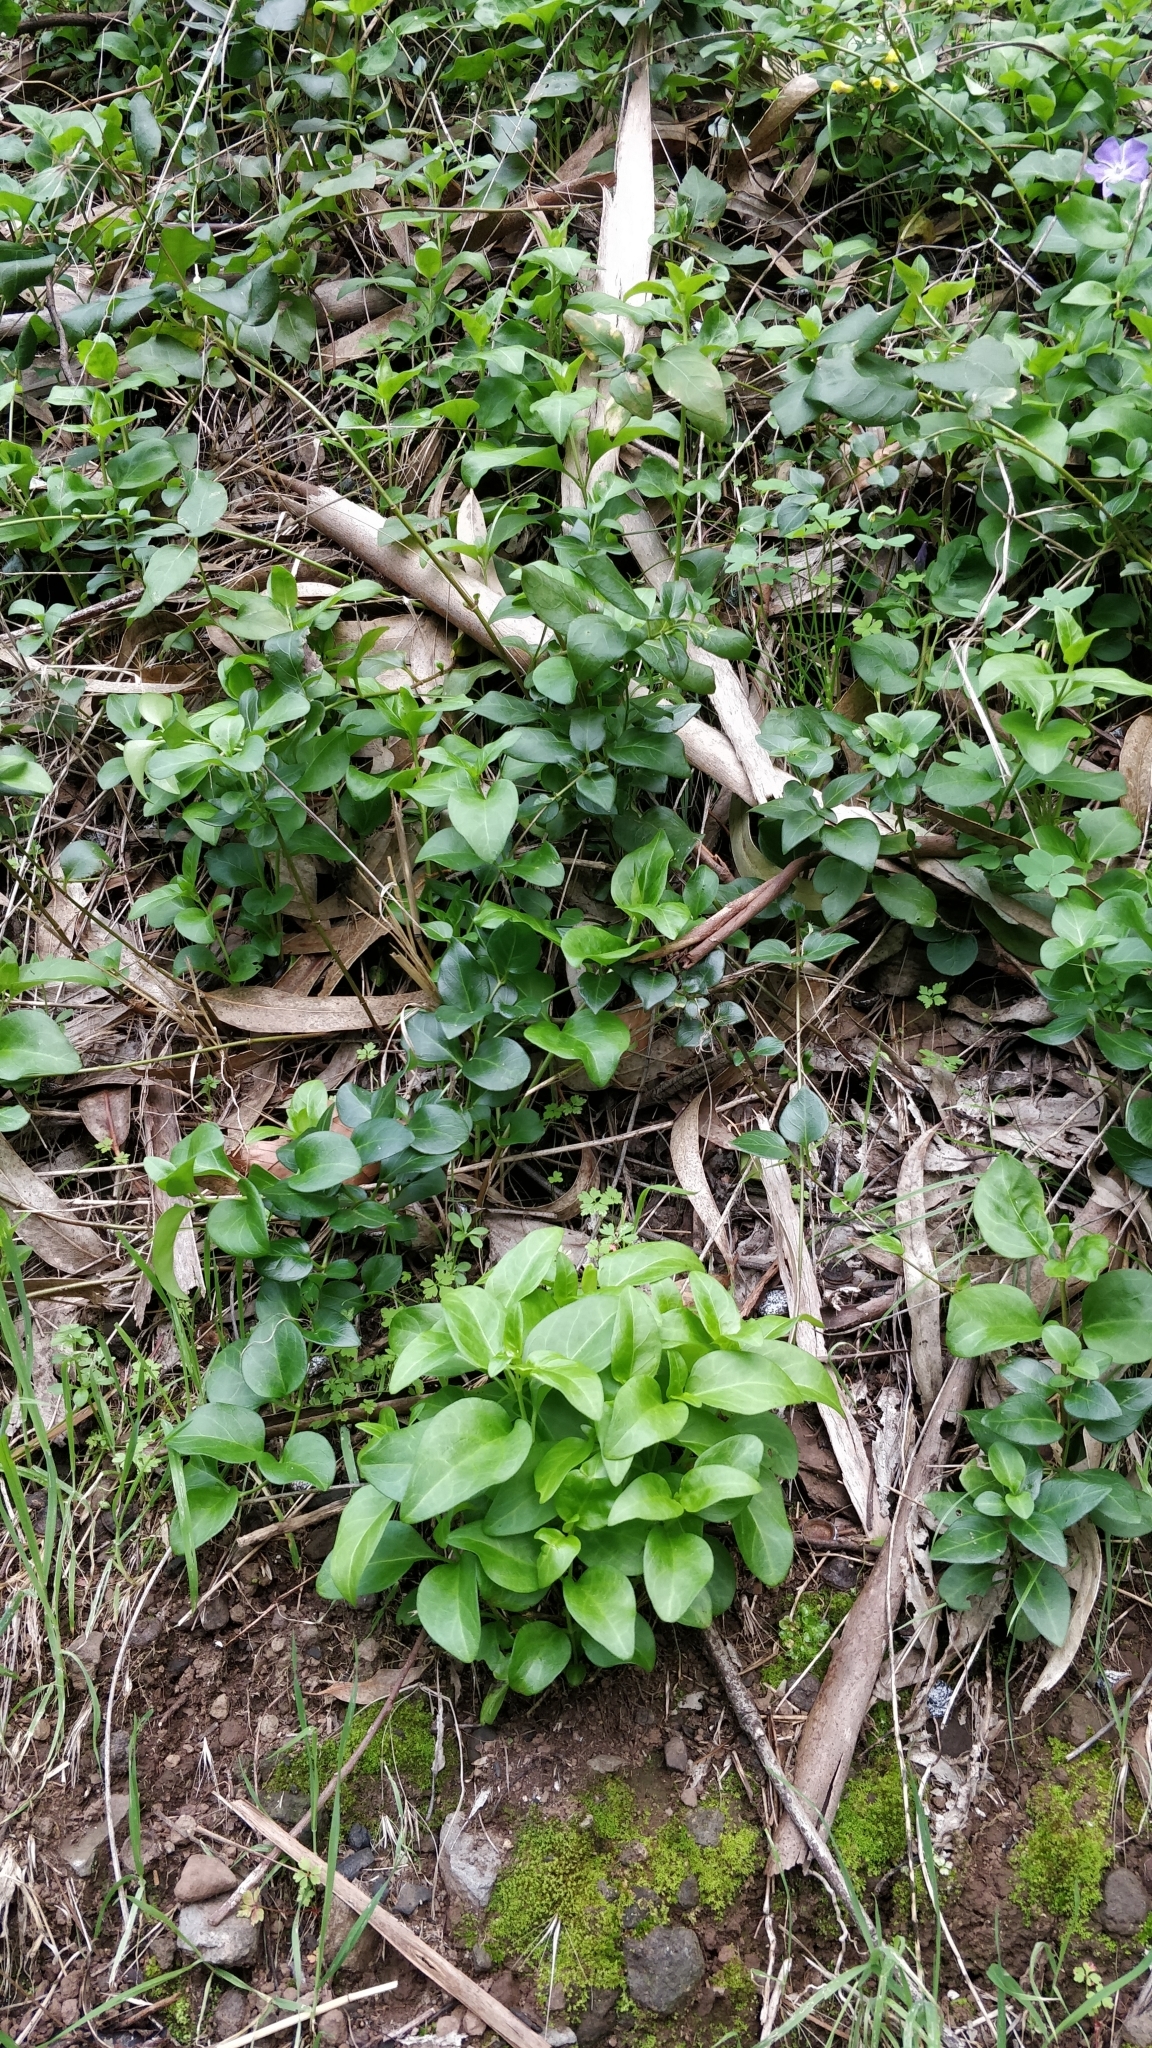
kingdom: Plantae
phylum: Tracheophyta
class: Magnoliopsida
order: Gentianales
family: Apocynaceae
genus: Vinca
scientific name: Vinca major
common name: Greater periwinkle
